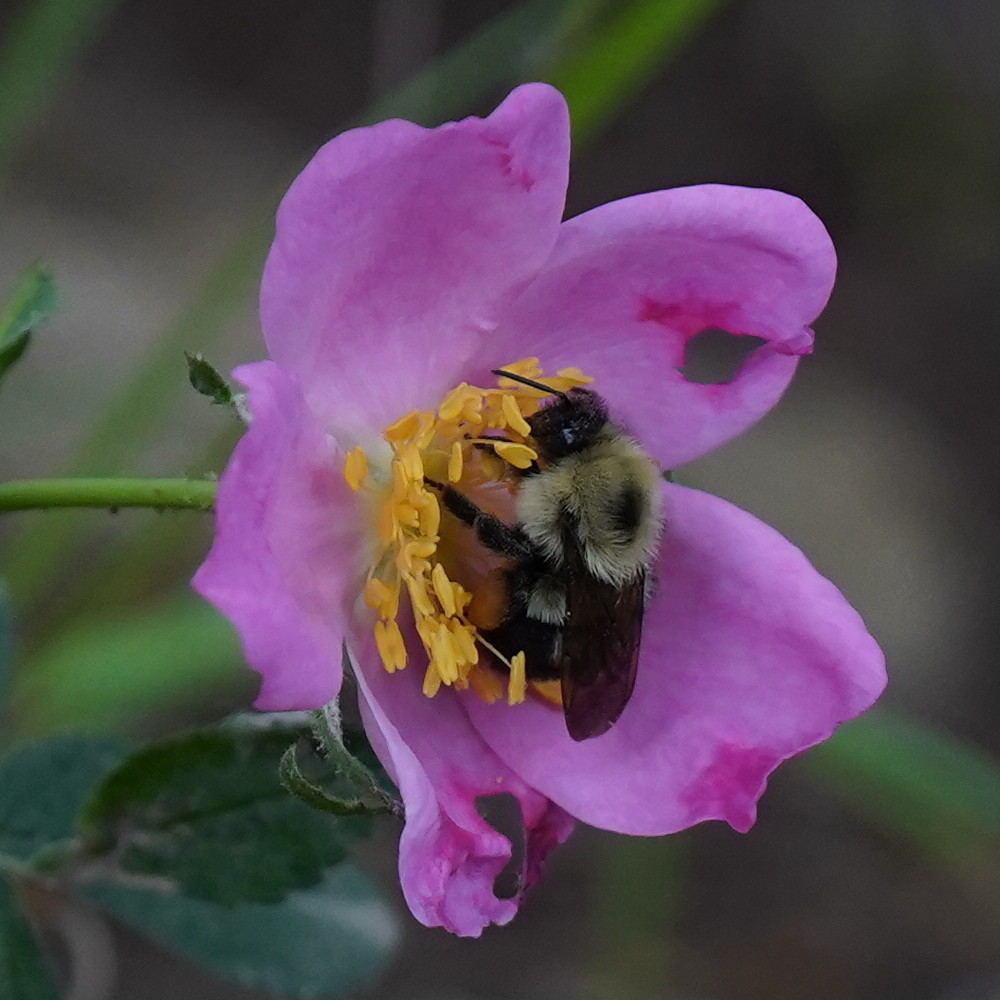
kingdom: Animalia
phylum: Arthropoda
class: Insecta
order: Hymenoptera
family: Apidae
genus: Bombus
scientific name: Bombus bimaculatus
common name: Two-spotted bumble bee
